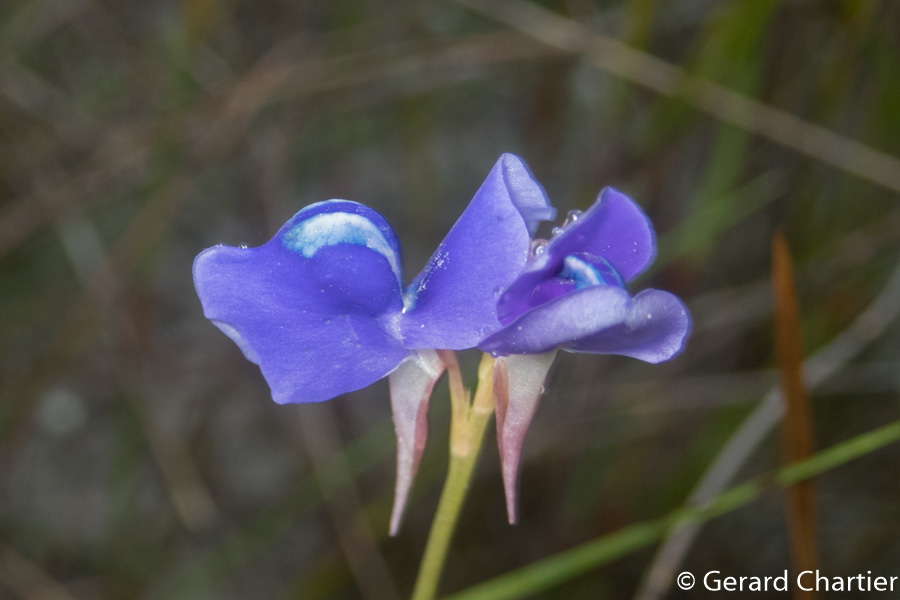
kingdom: Plantae
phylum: Tracheophyta
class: Magnoliopsida
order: Lamiales
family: Lentibulariaceae
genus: Utricularia
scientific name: Utricularia delphinioides
